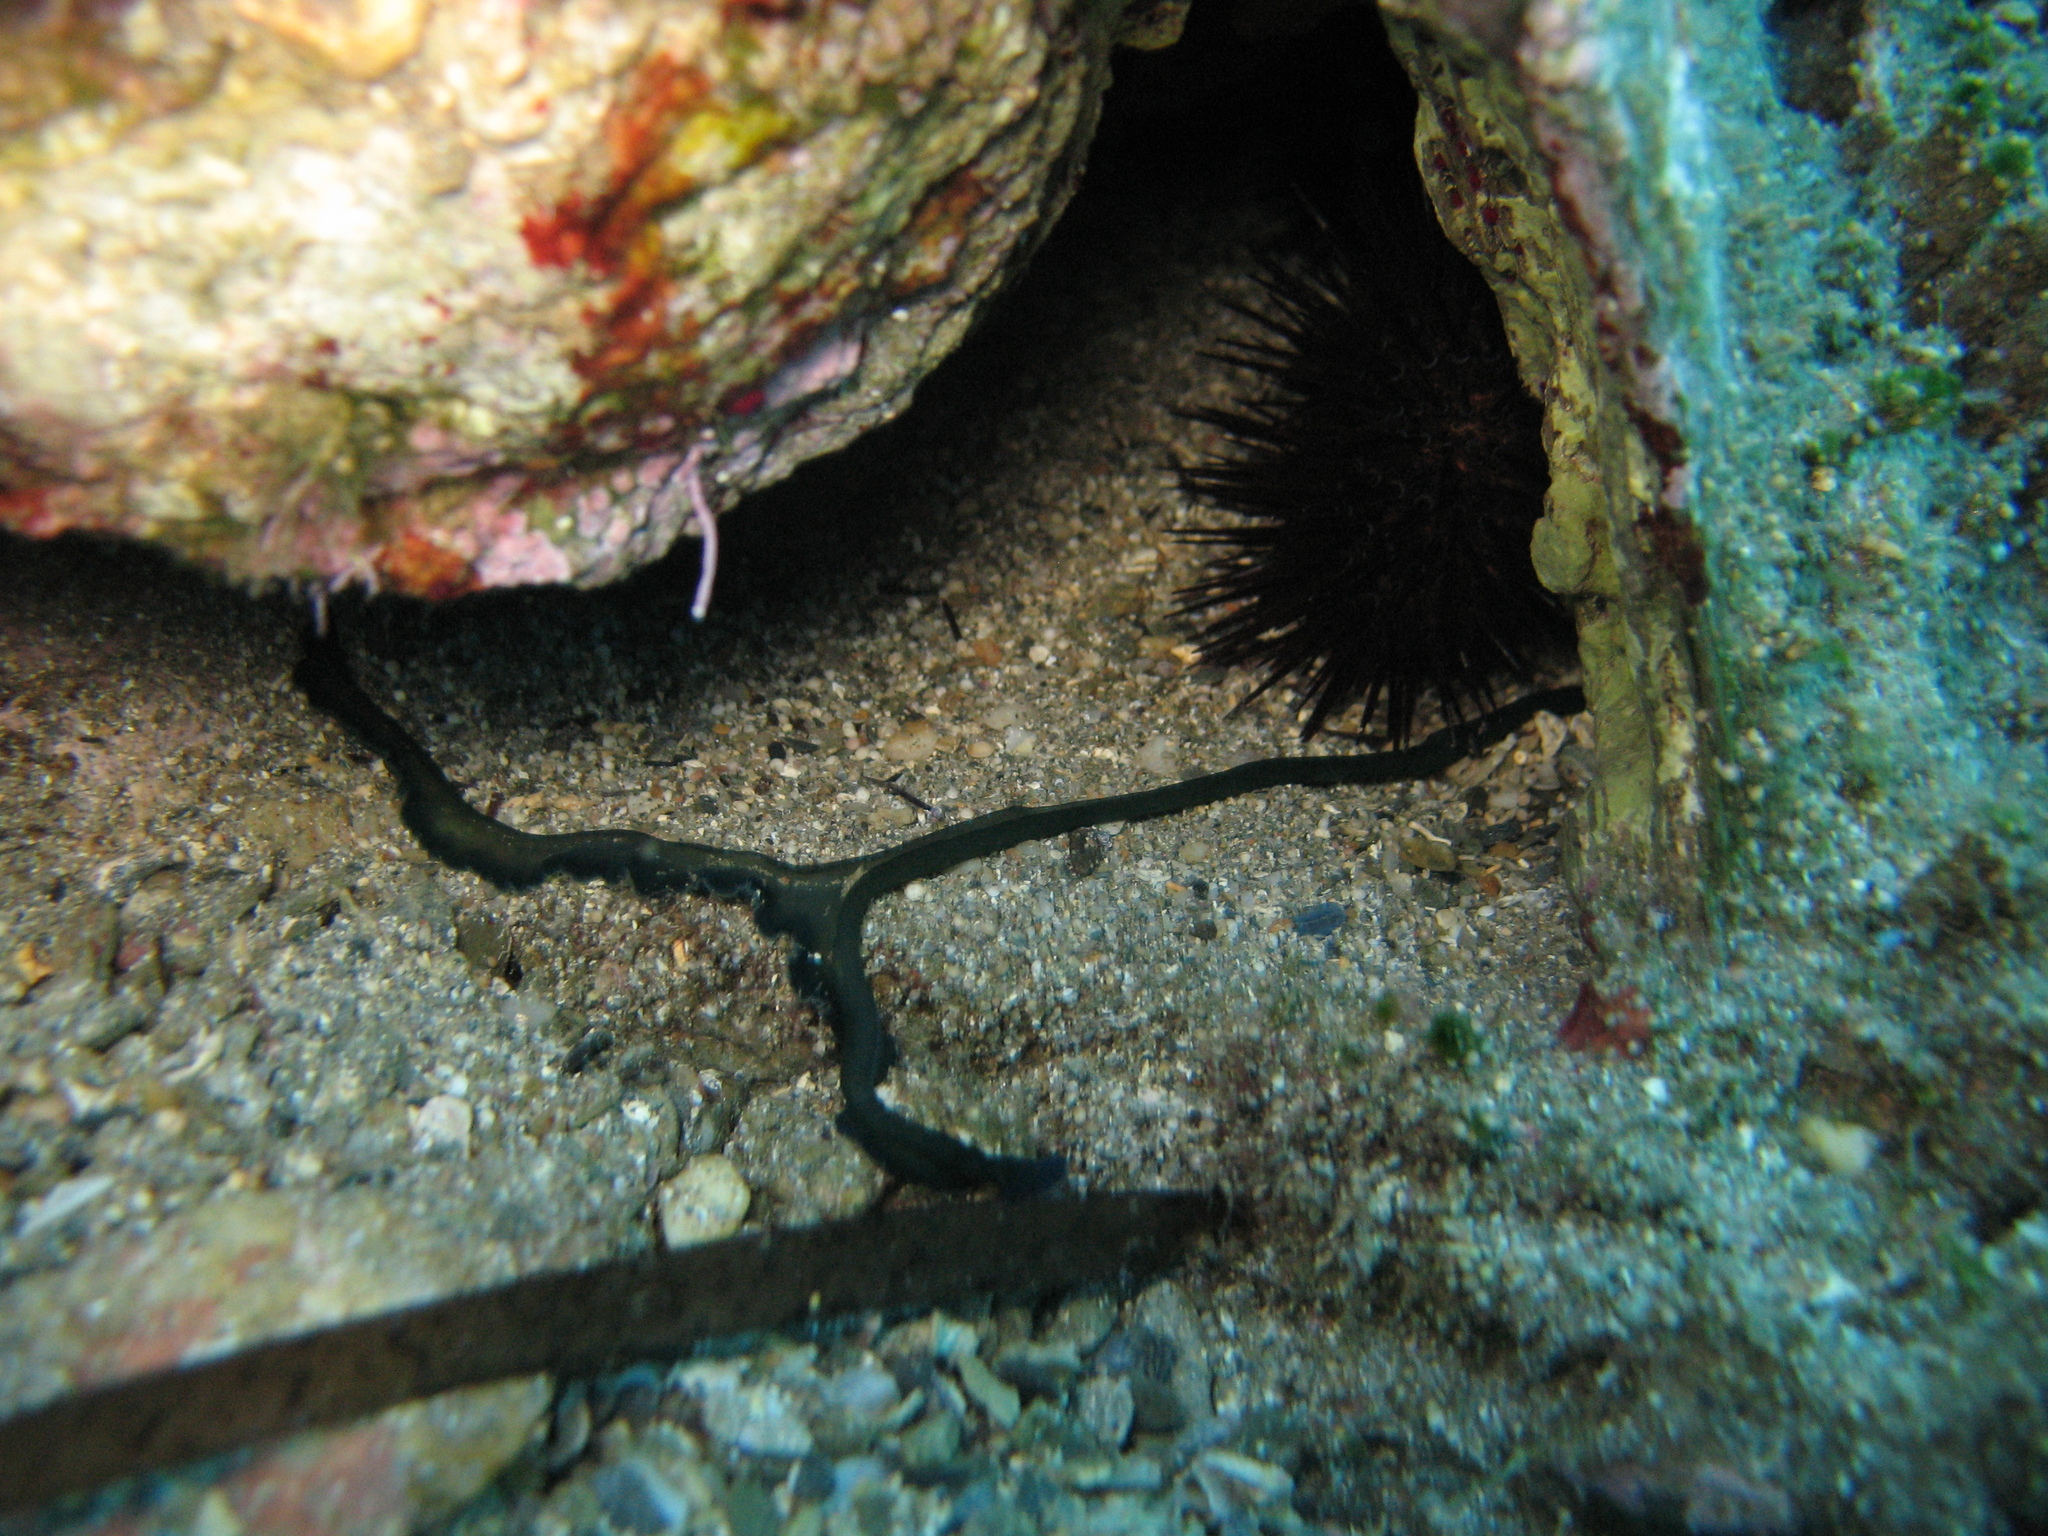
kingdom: Animalia
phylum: Annelida
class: Polychaeta
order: Echiuroidea
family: Bonelliidae
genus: Bonellia
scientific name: Bonellia viridis
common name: Green spoon worm
